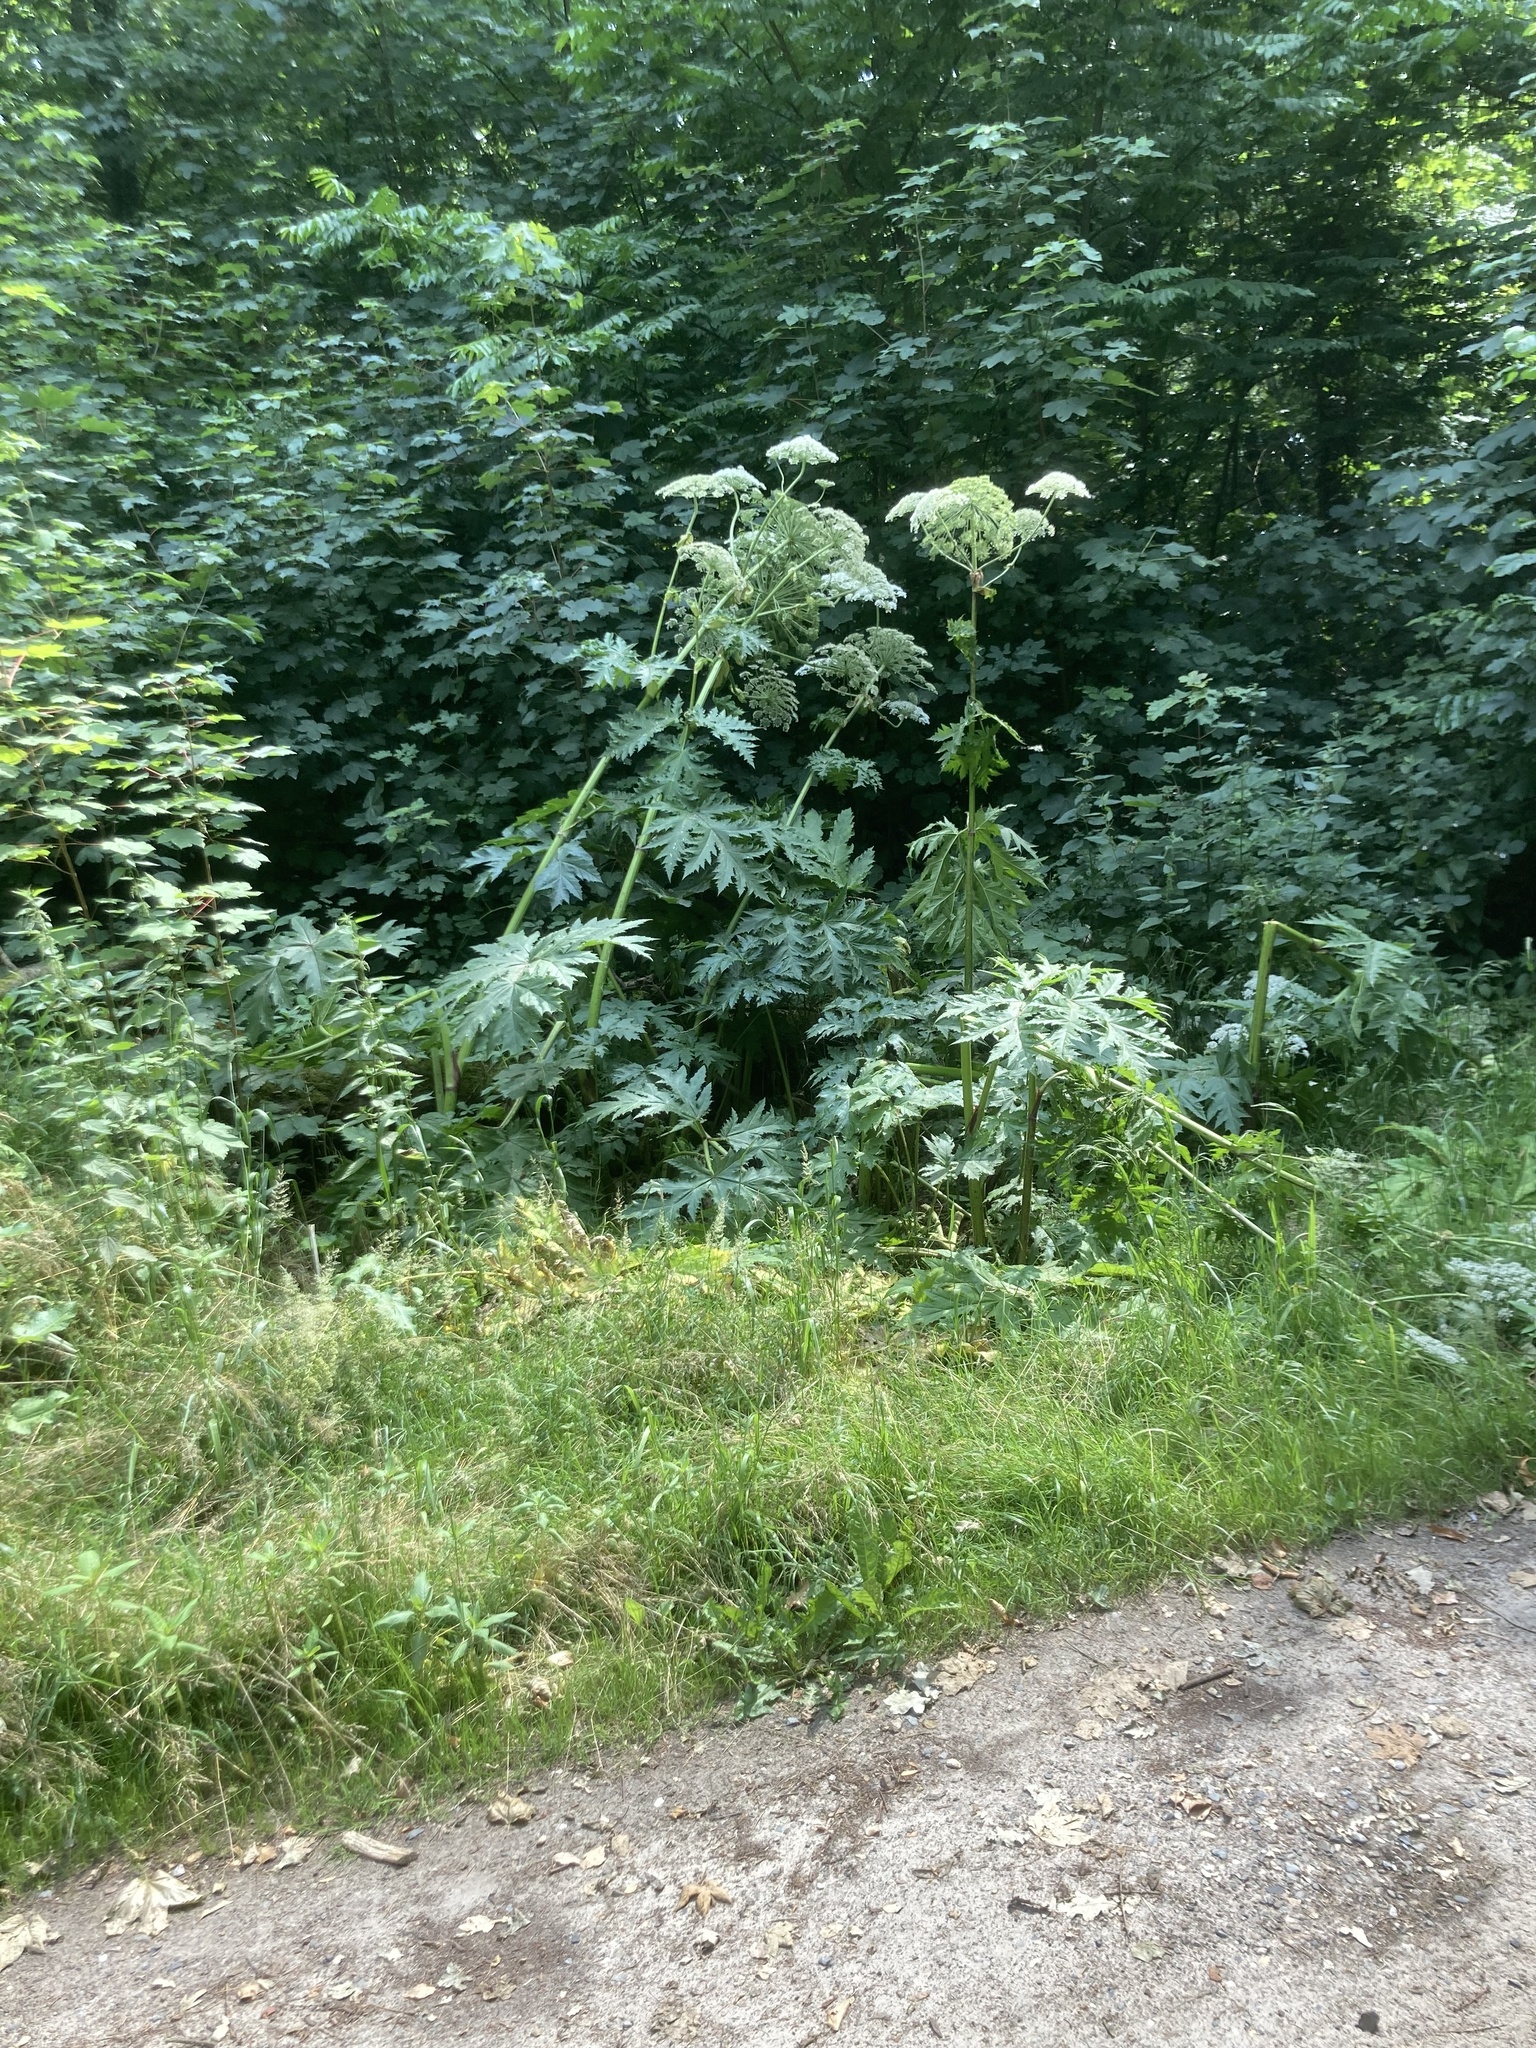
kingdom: Plantae
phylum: Tracheophyta
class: Magnoliopsida
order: Apiales
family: Apiaceae
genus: Heracleum
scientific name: Heracleum mantegazzianum
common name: Giant hogweed
